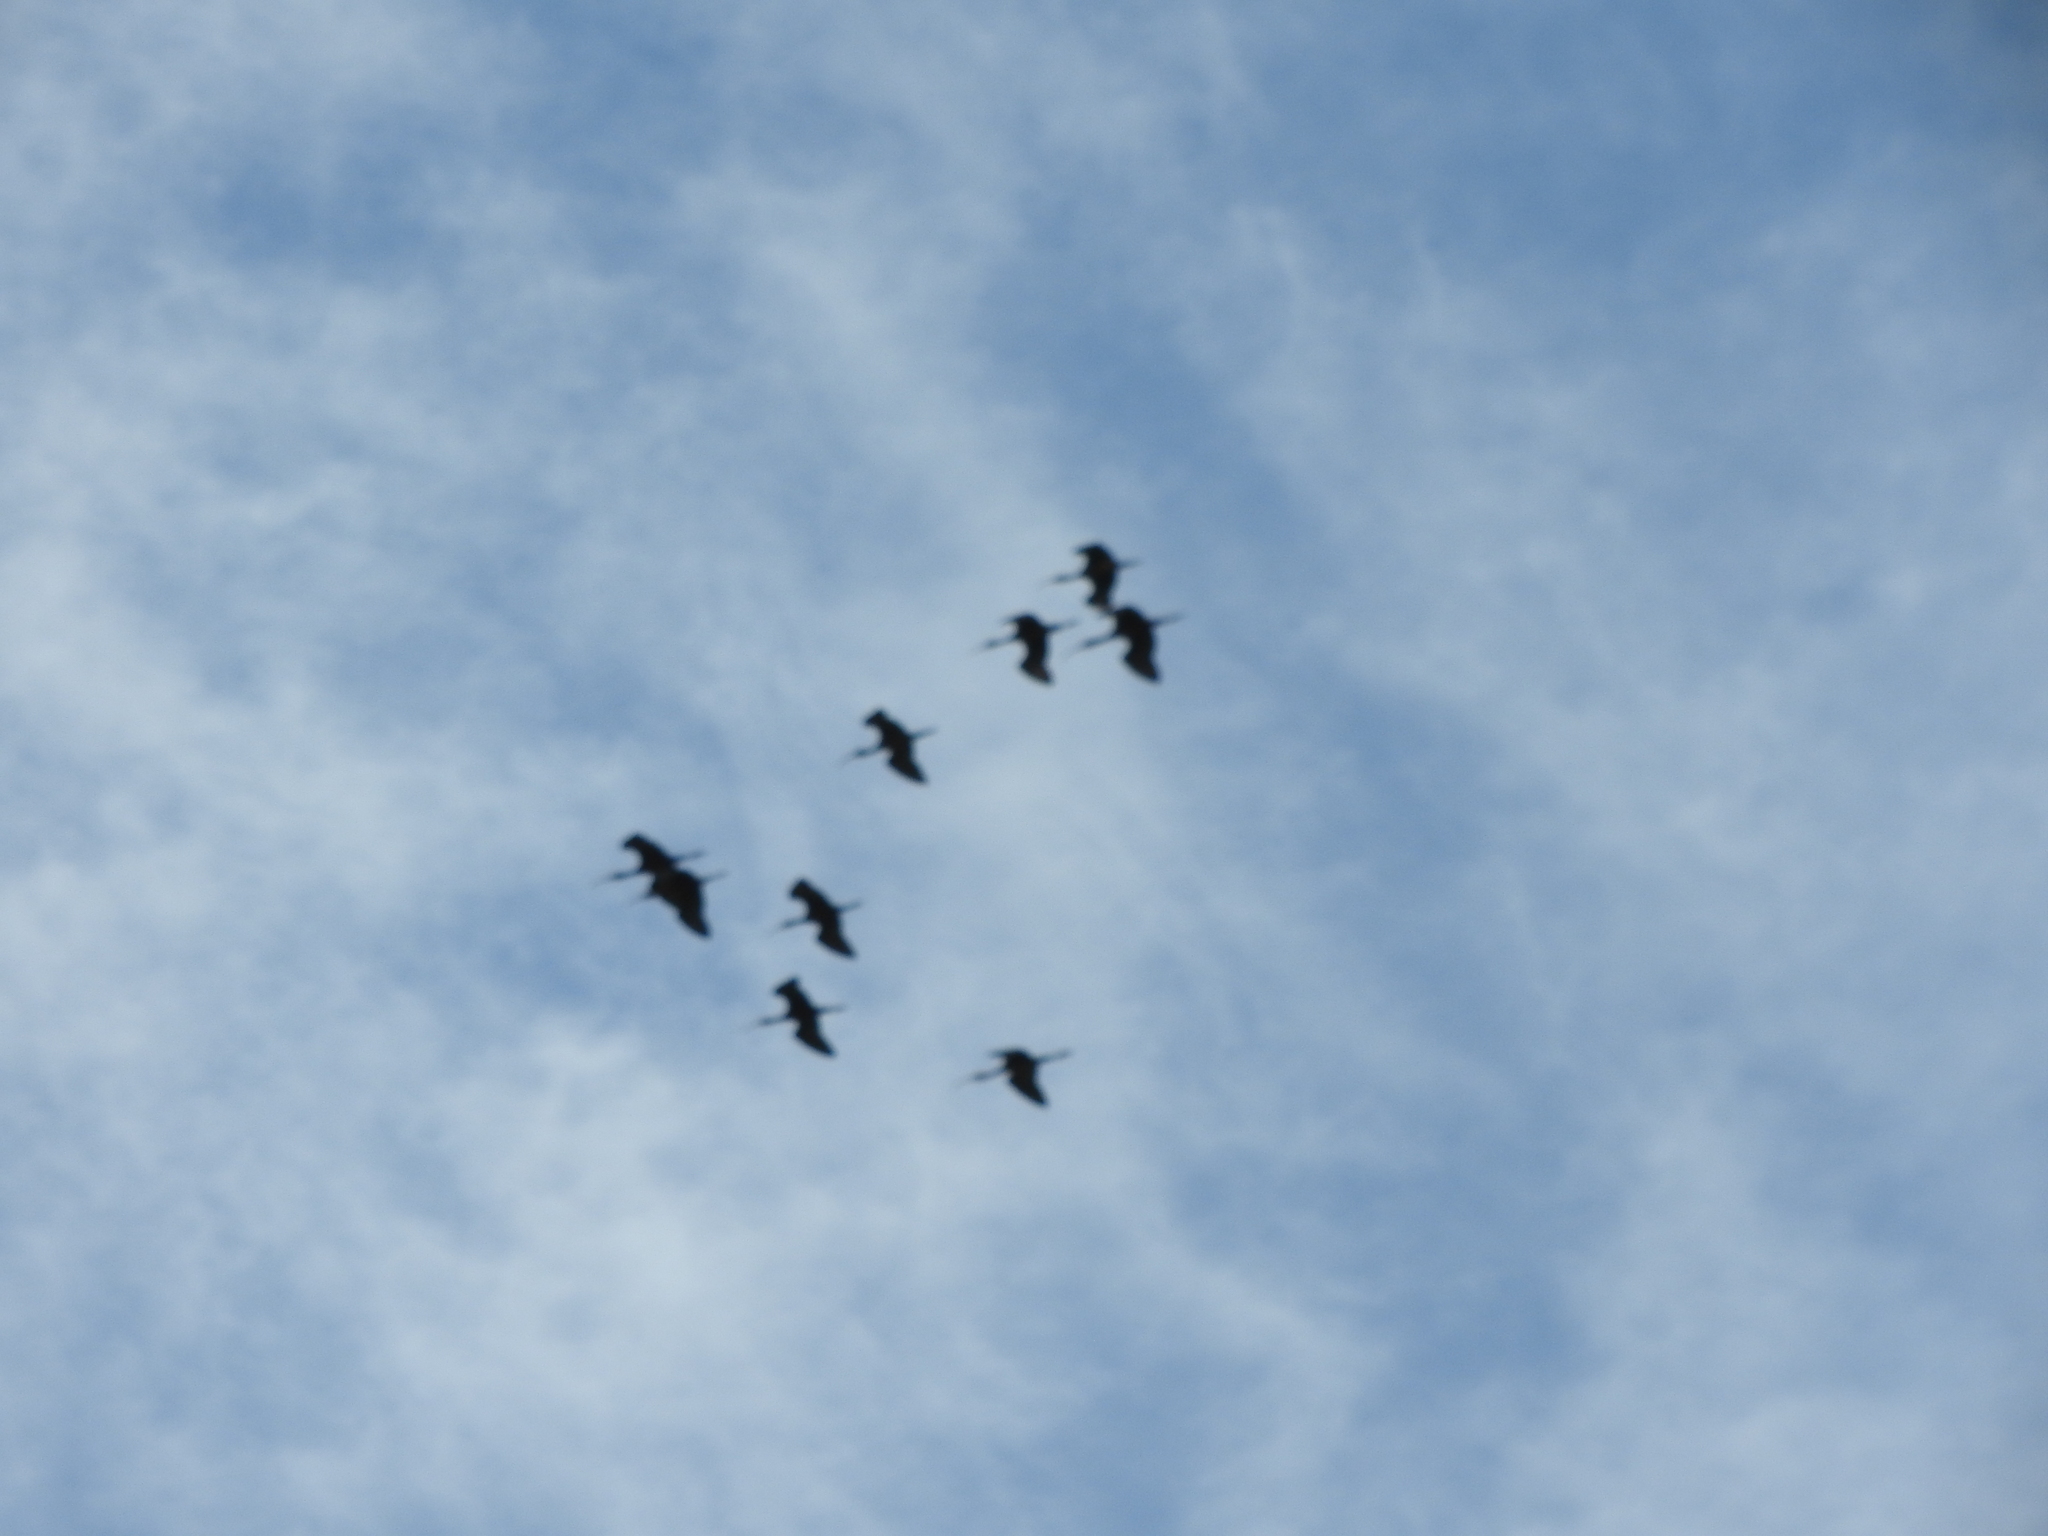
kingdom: Animalia
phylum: Chordata
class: Aves
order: Pelecaniformes
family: Threskiornithidae
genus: Plegadis
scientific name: Plegadis chihi
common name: White-faced ibis
